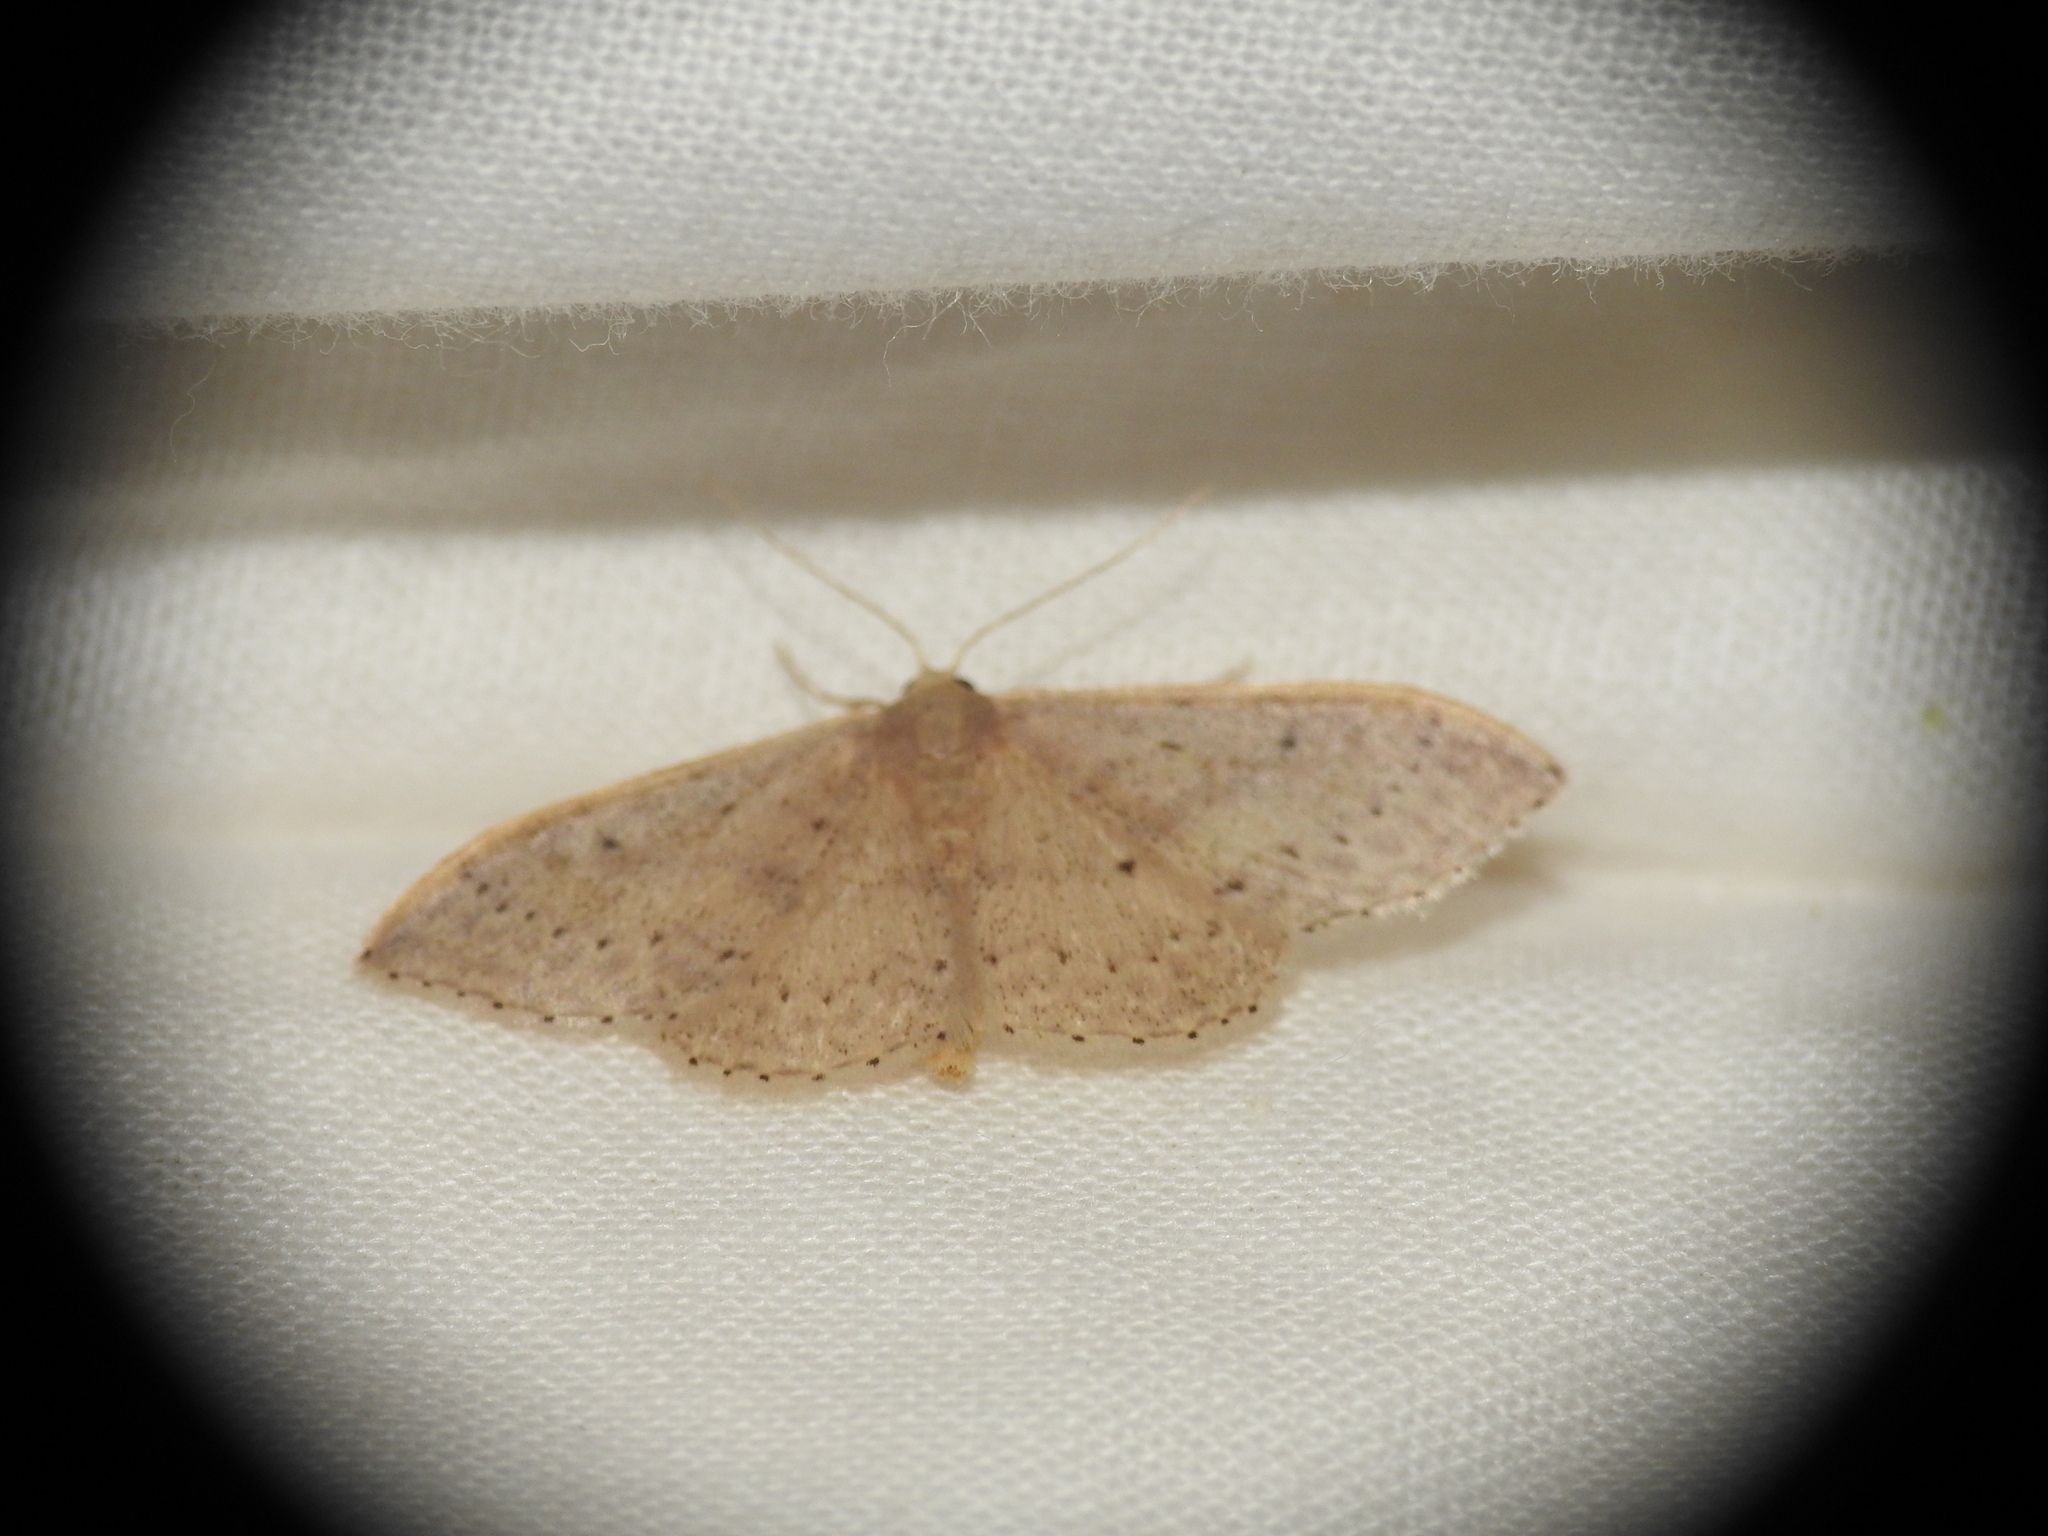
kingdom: Animalia
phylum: Arthropoda
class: Insecta
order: Lepidoptera
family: Geometridae
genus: Idaea
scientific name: Idaea eugeniata
